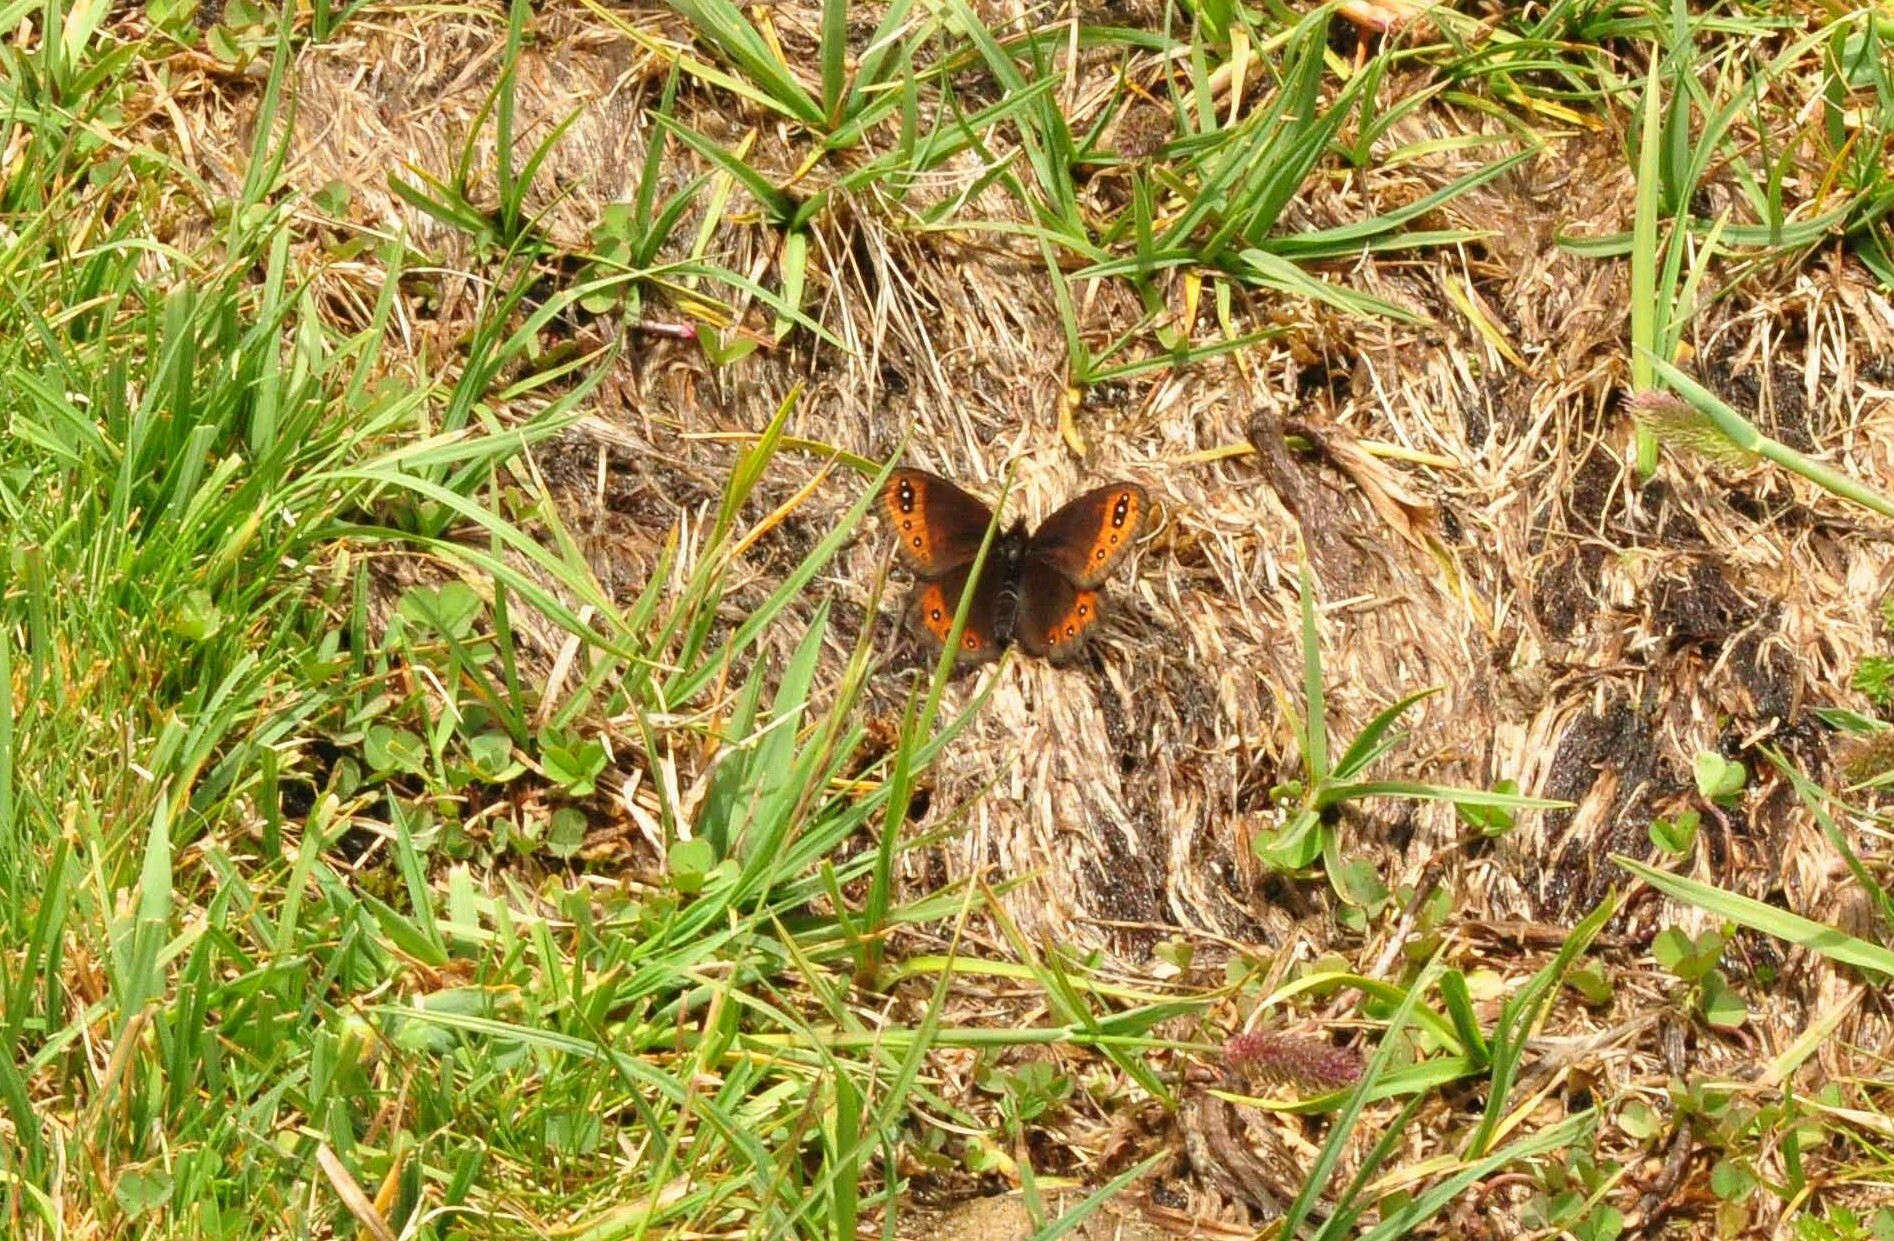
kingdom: Animalia
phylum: Arthropoda
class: Insecta
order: Lepidoptera
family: Nymphalidae
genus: Erebia
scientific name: Erebia triarius
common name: De prunner’s ringlet
